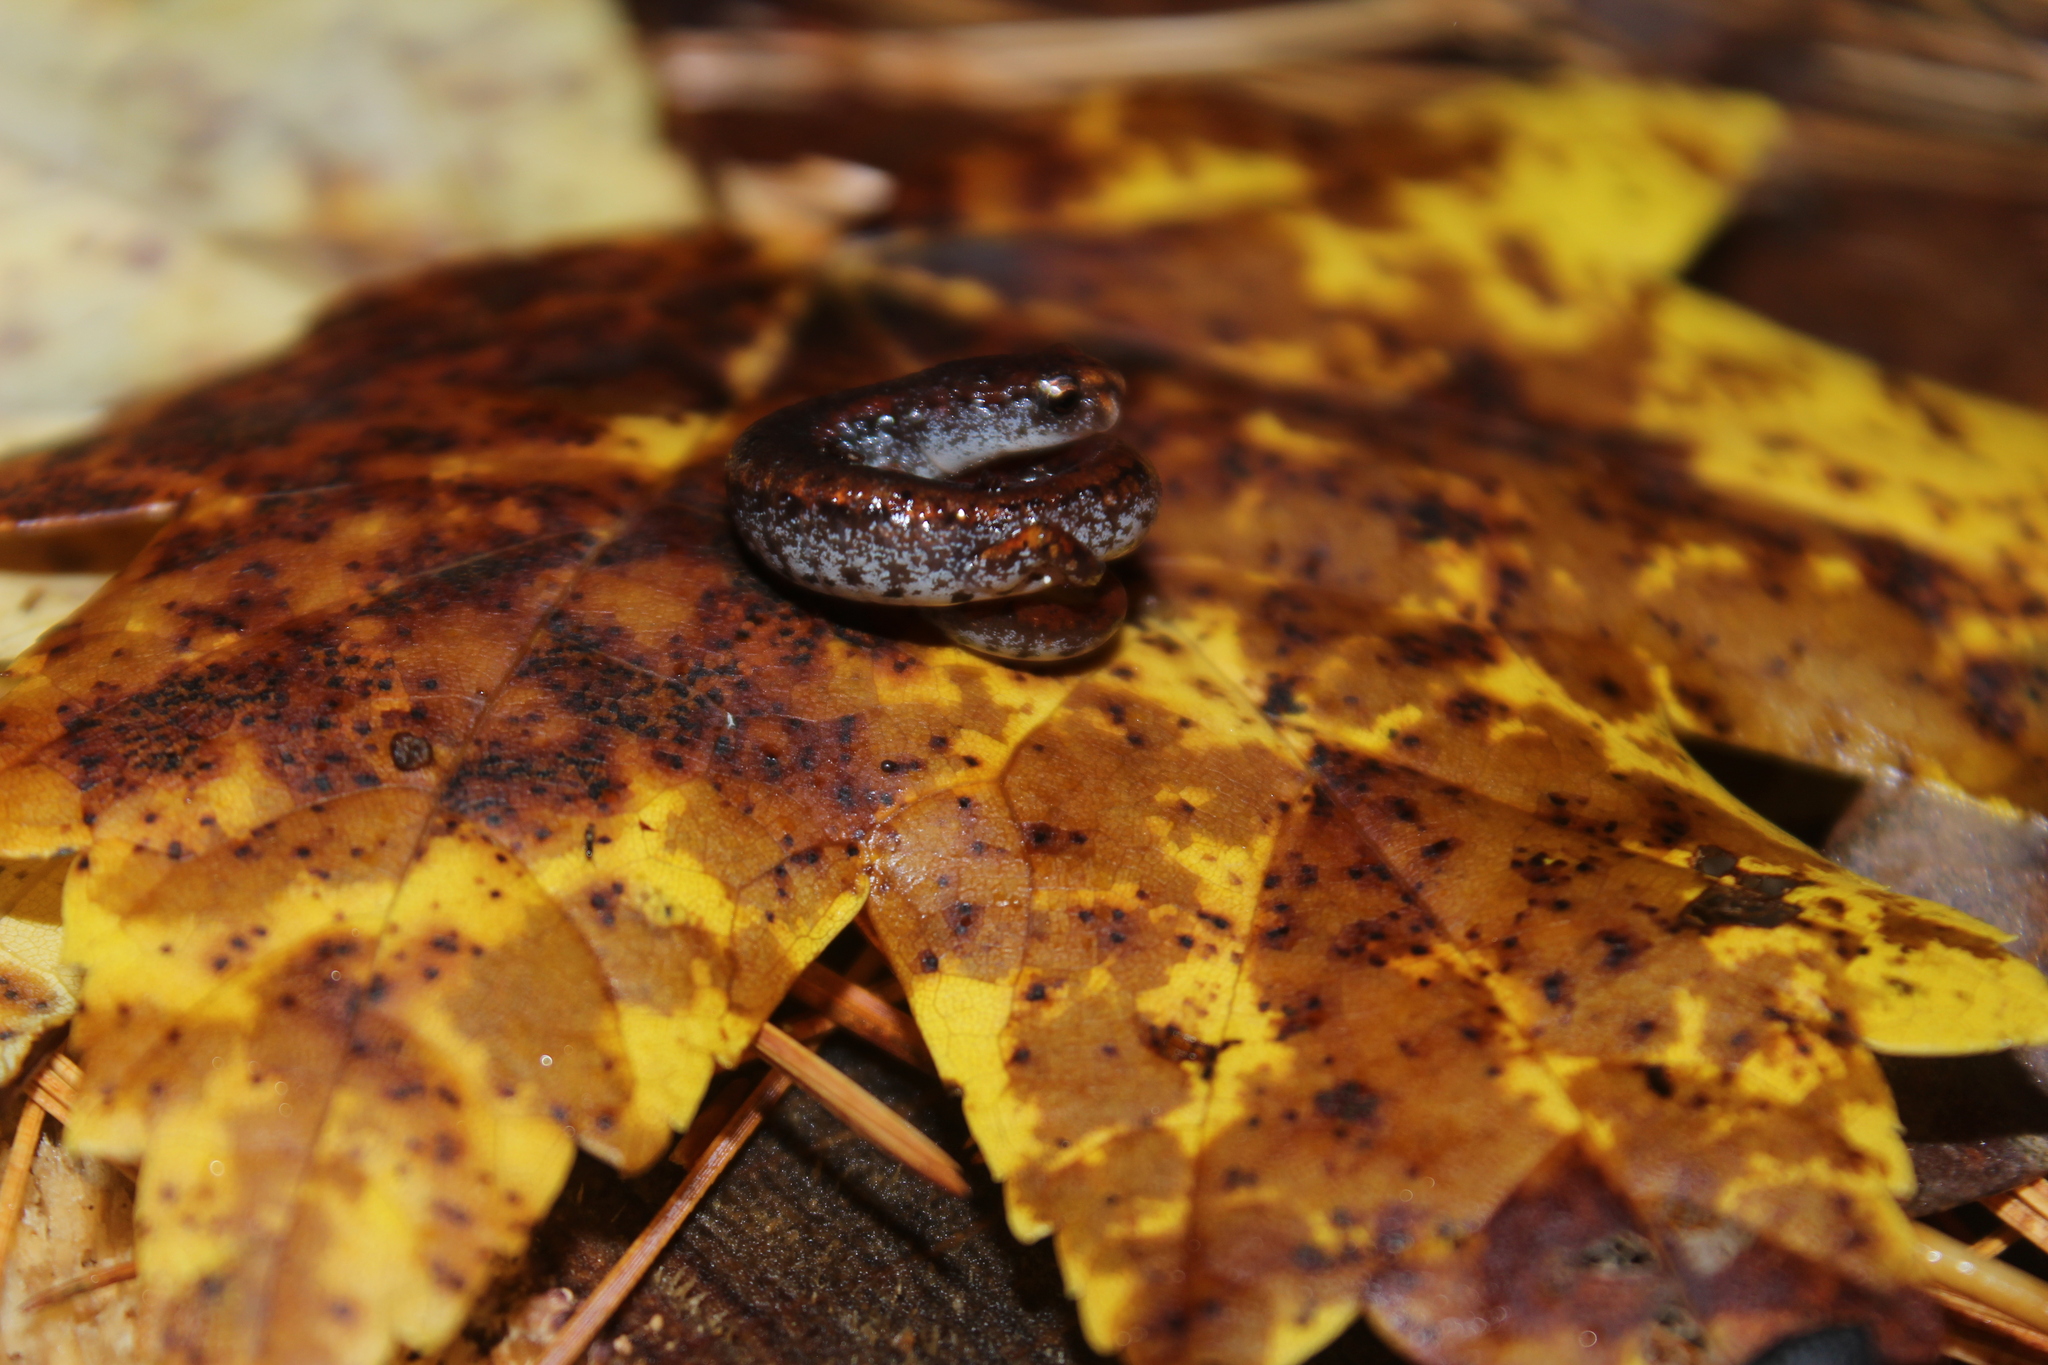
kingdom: Animalia
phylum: Chordata
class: Amphibia
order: Caudata
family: Plethodontidae
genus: Hemidactylium
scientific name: Hemidactylium scutatum
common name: Four-toed salamander
